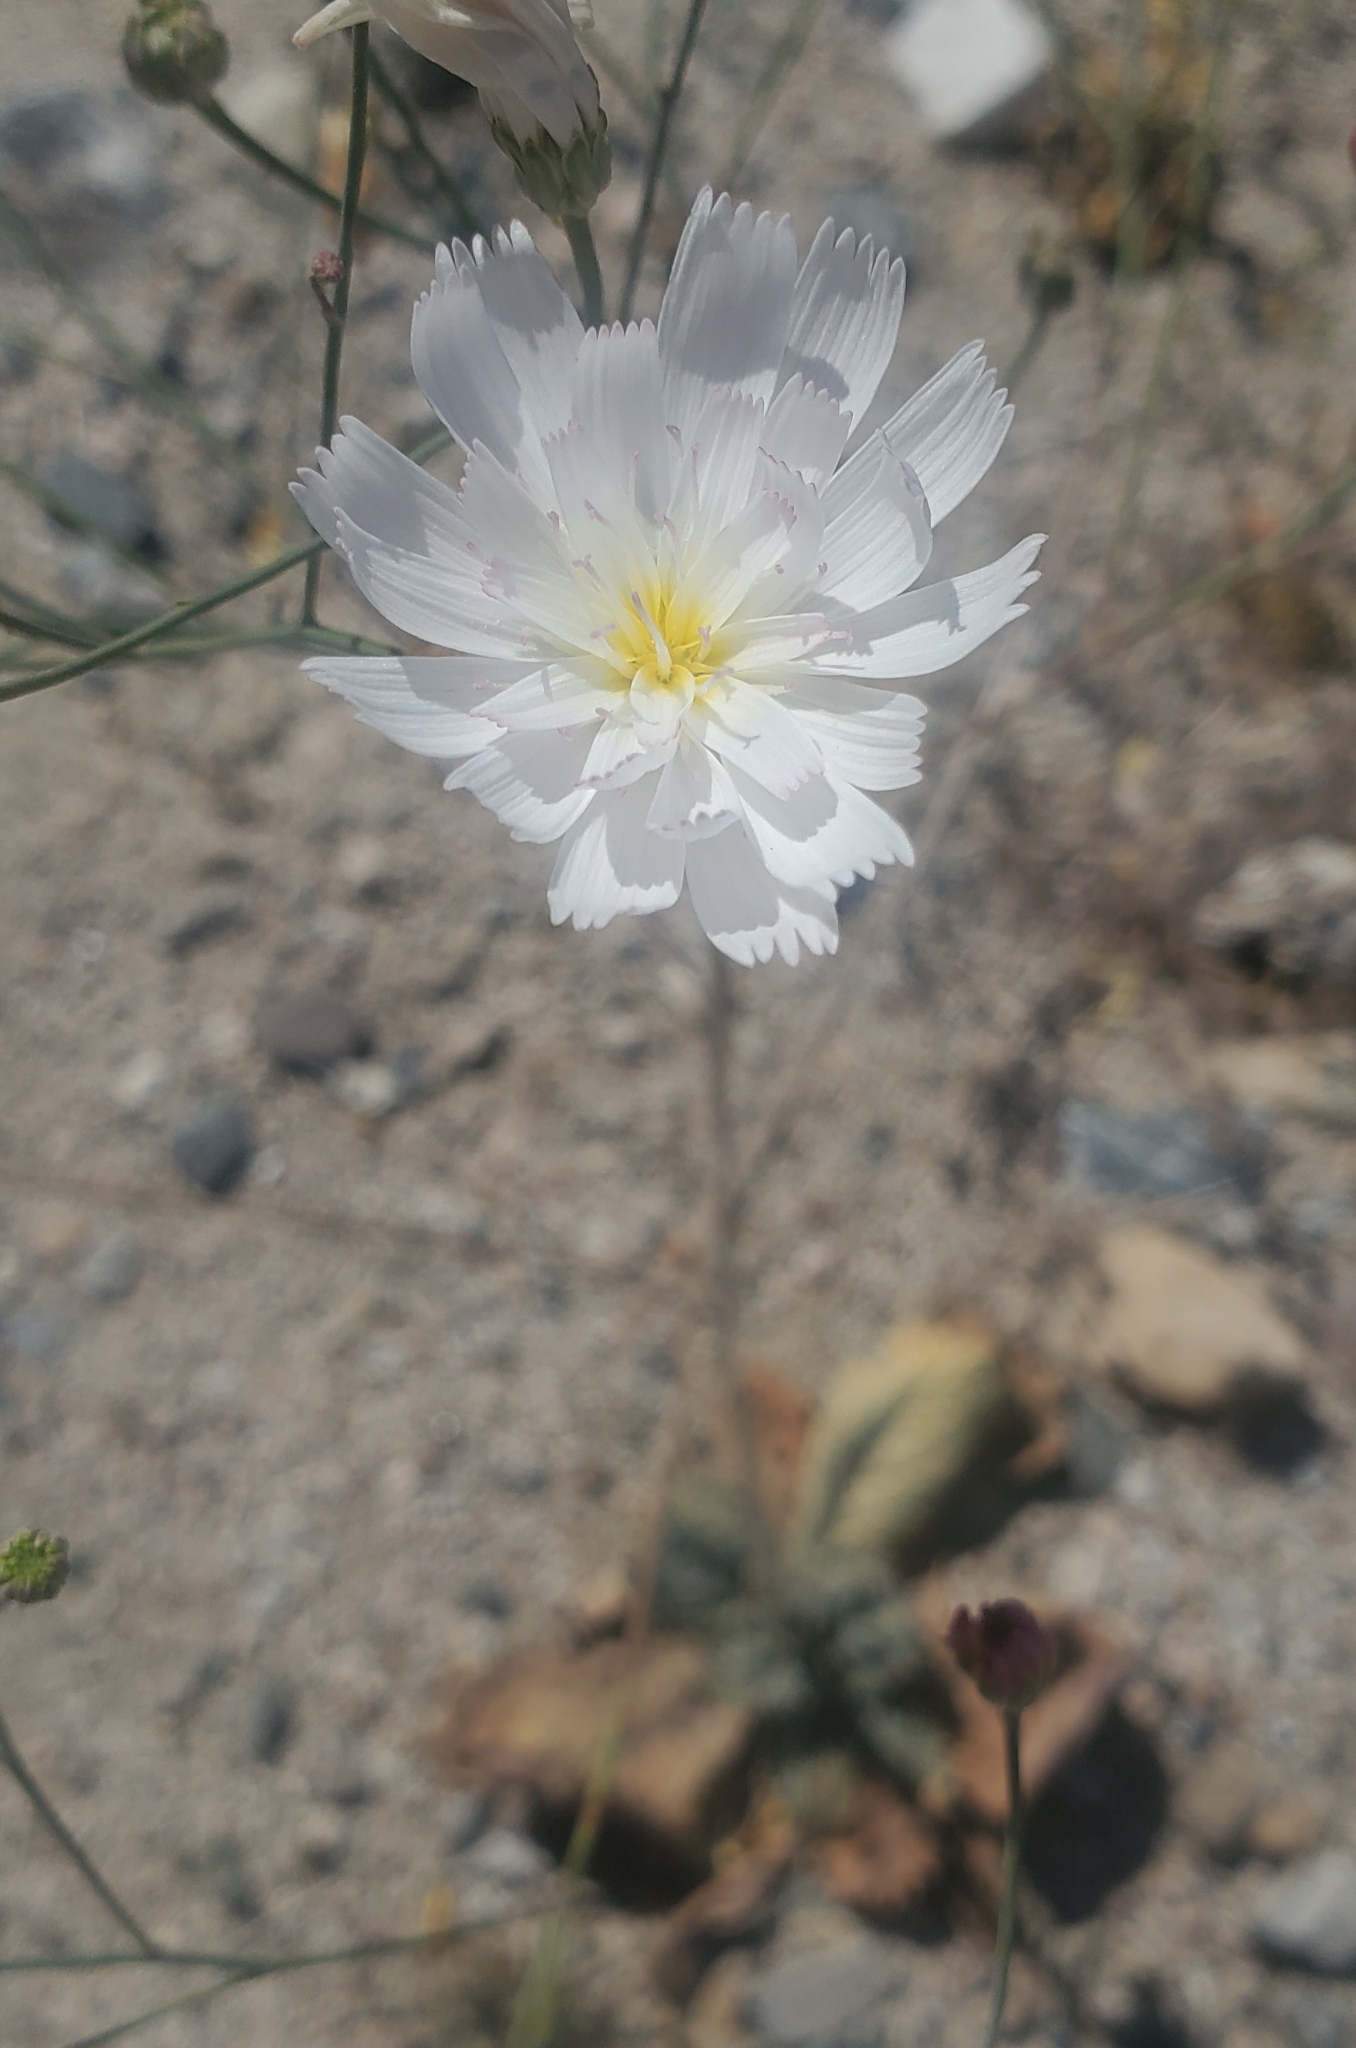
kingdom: Plantae
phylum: Tracheophyta
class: Magnoliopsida
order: Asterales
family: Asteraceae
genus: Atrichoseris
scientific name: Atrichoseris platyphylla
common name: Tobaccoweed
